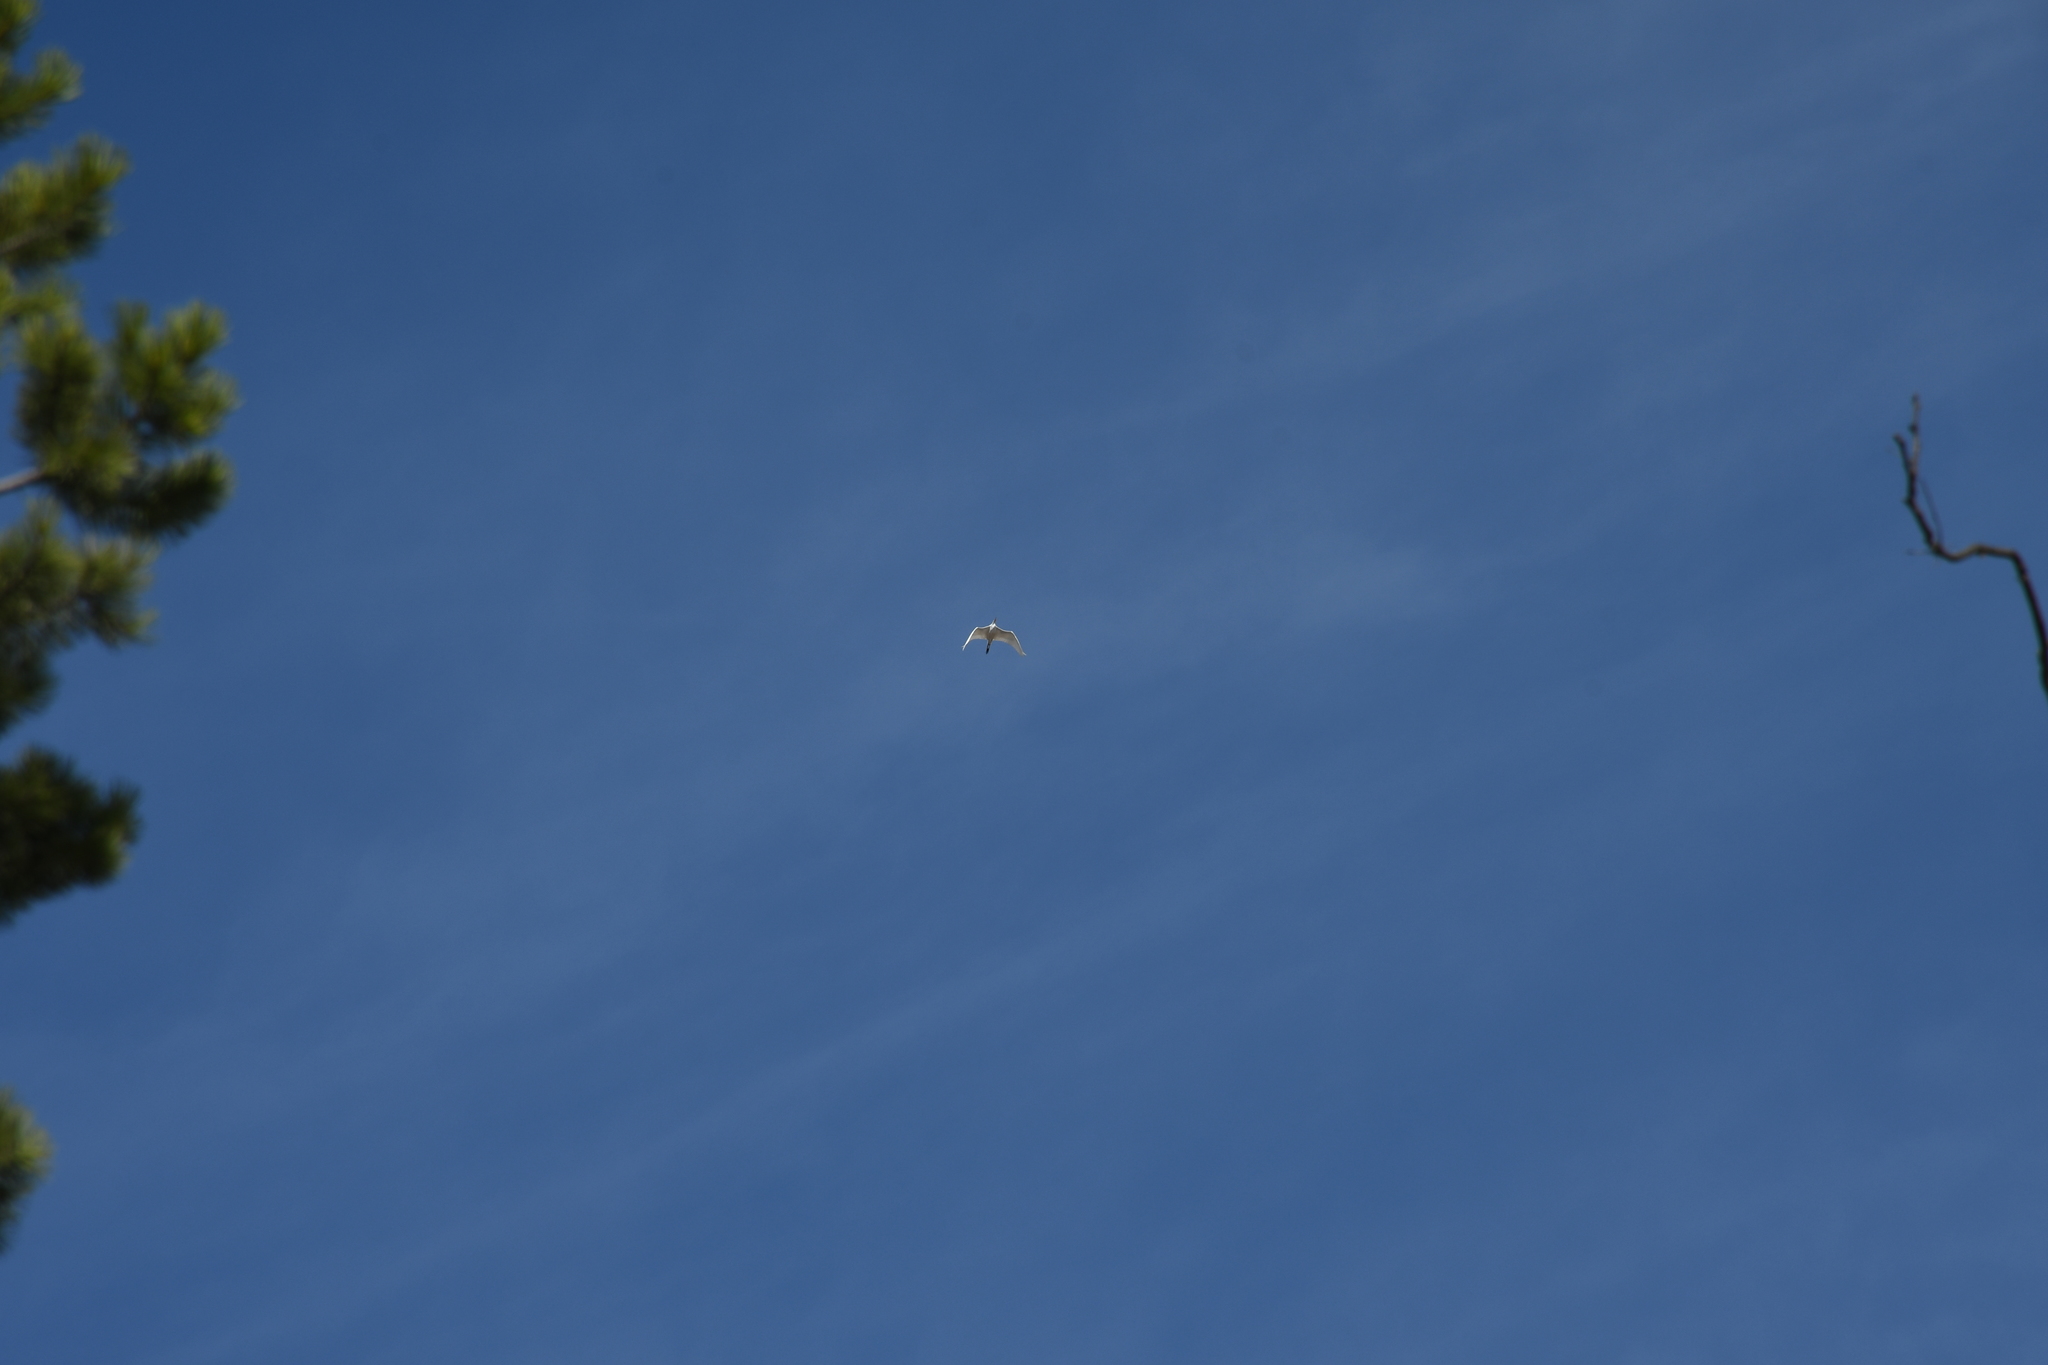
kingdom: Animalia
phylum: Chordata
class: Aves
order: Pelecaniformes
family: Ardeidae
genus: Ardea
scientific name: Ardea alba
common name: Great egret
